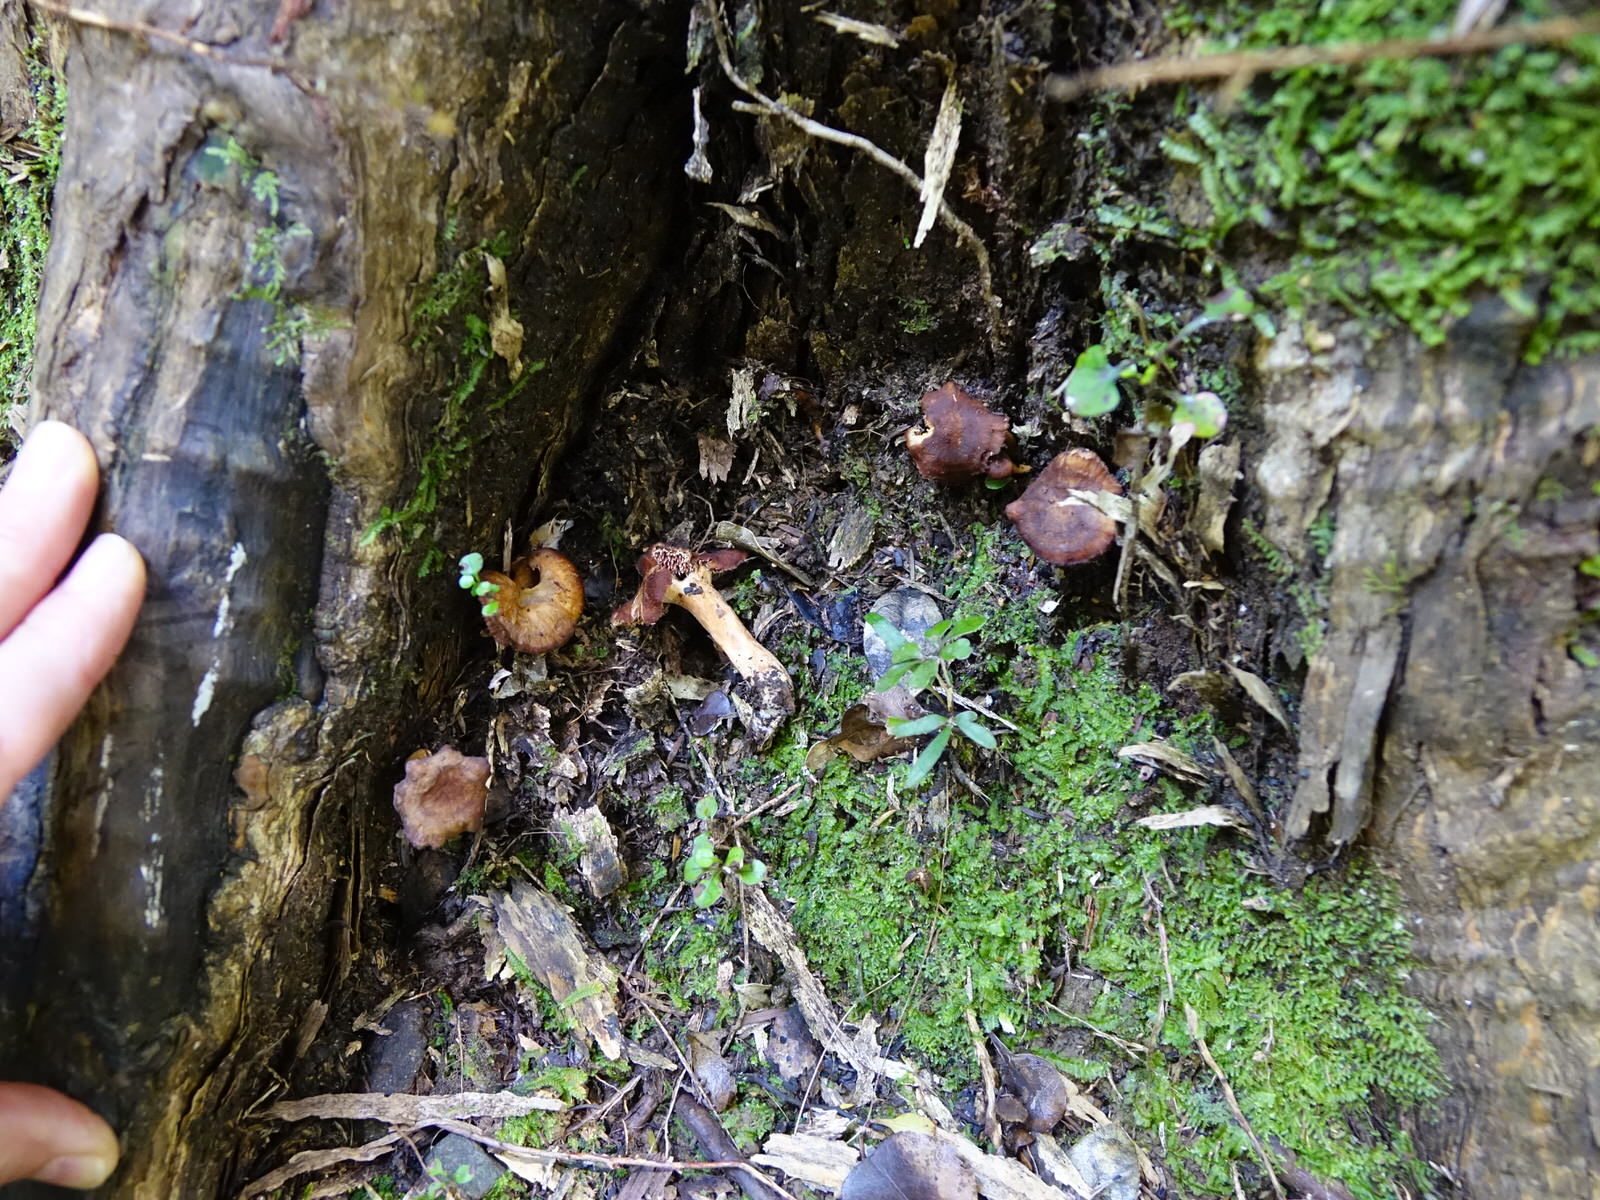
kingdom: Fungi
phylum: Basidiomycota
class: Agaricomycetes
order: Cantharellales
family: Hydnaceae
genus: Hydnum
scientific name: Hydnum
